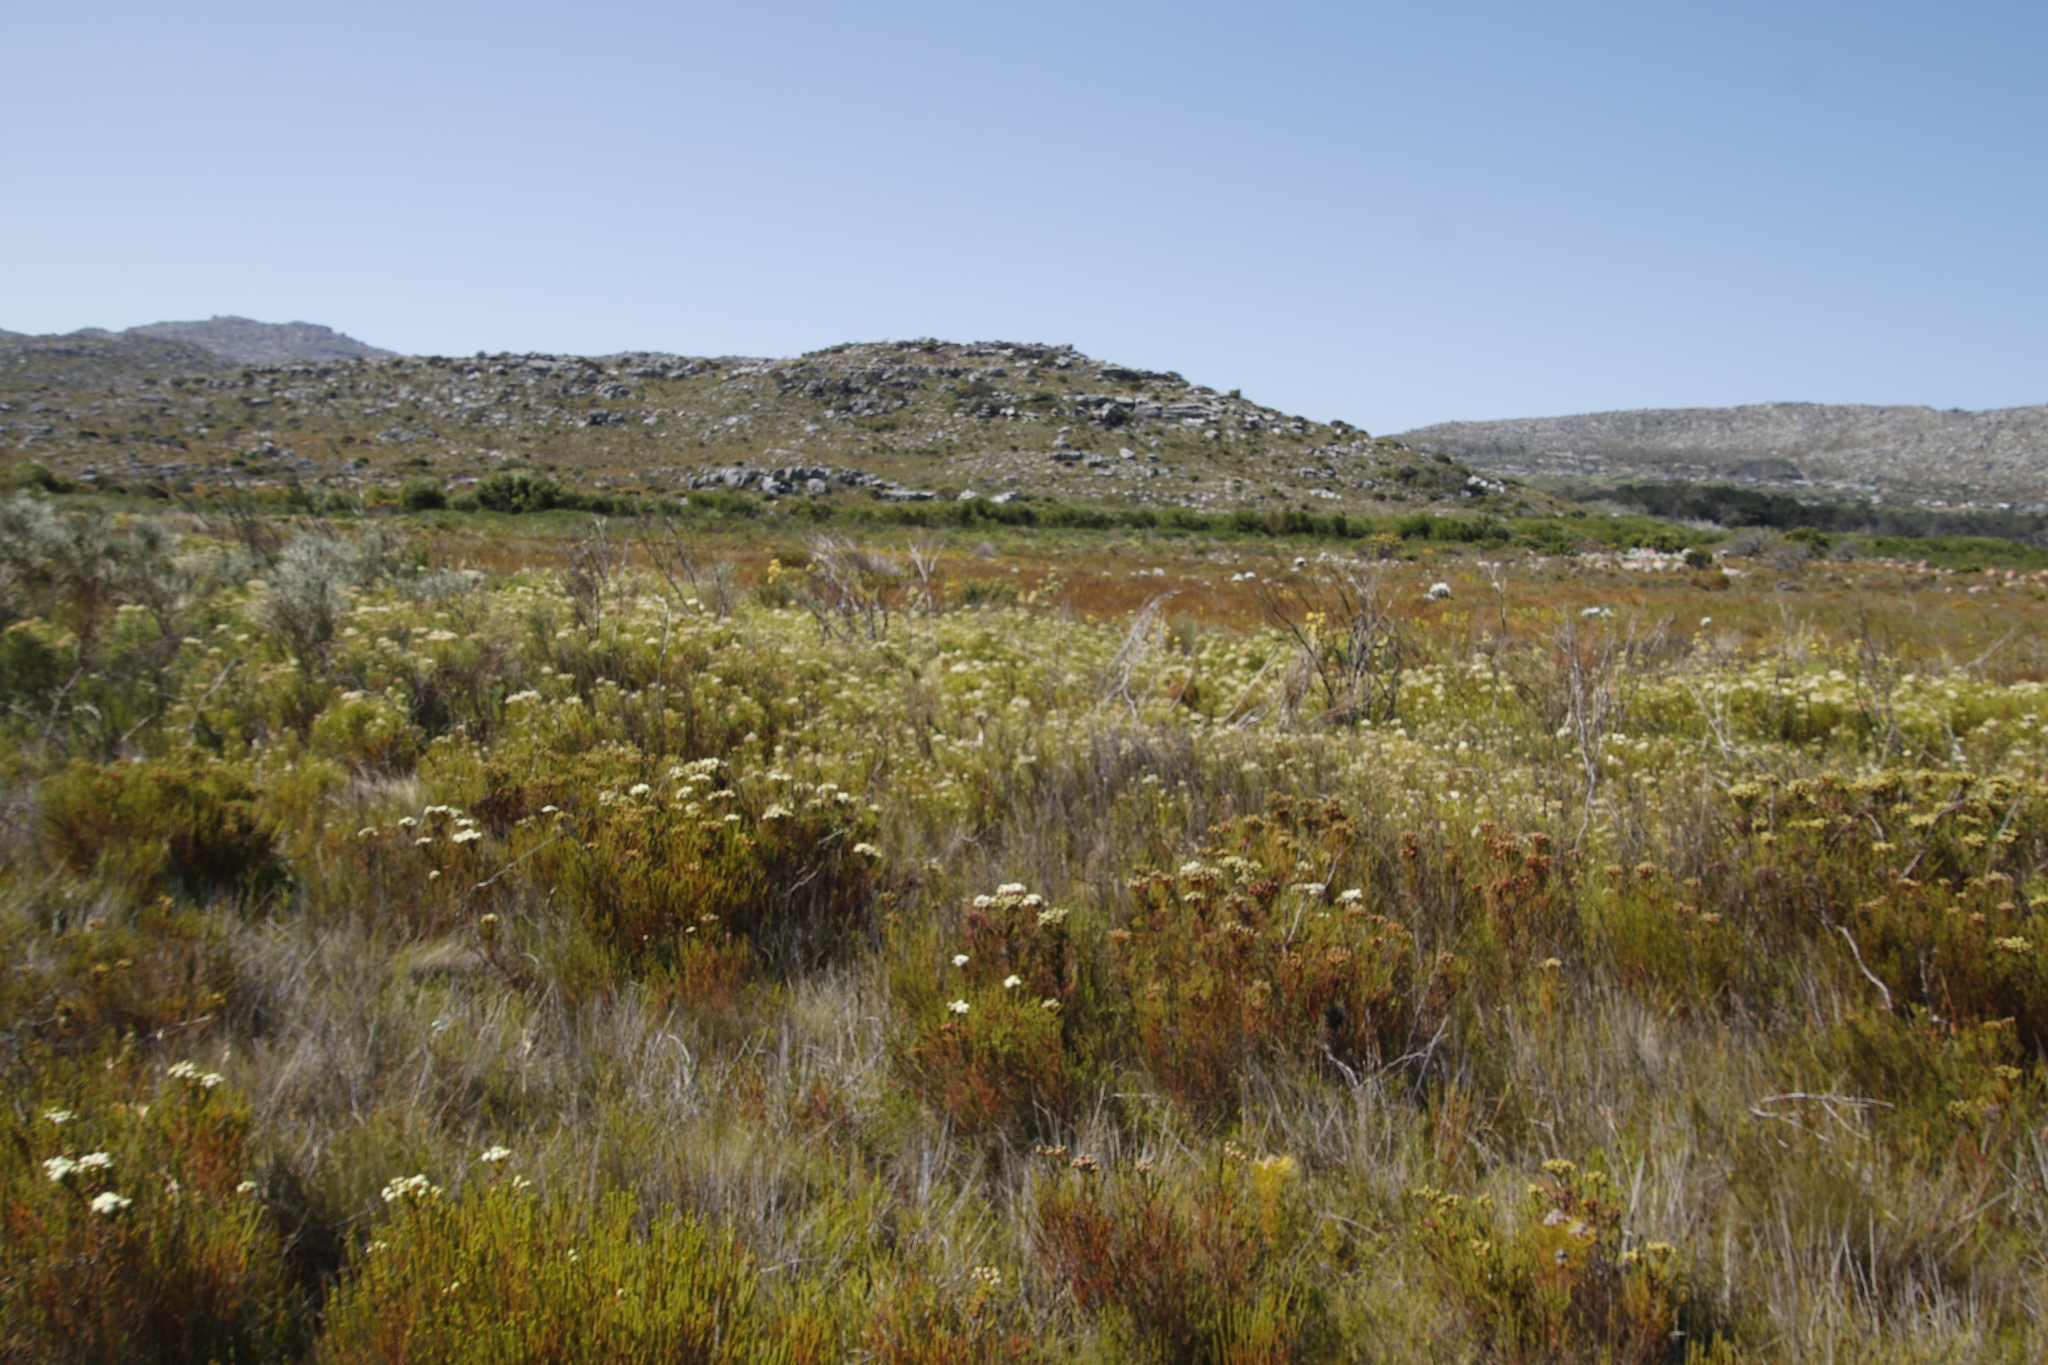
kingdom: Plantae
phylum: Tracheophyta
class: Magnoliopsida
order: Proteales
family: Proteaceae
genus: Leucadendron
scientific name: Leucadendron floridum
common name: Flats conebush
